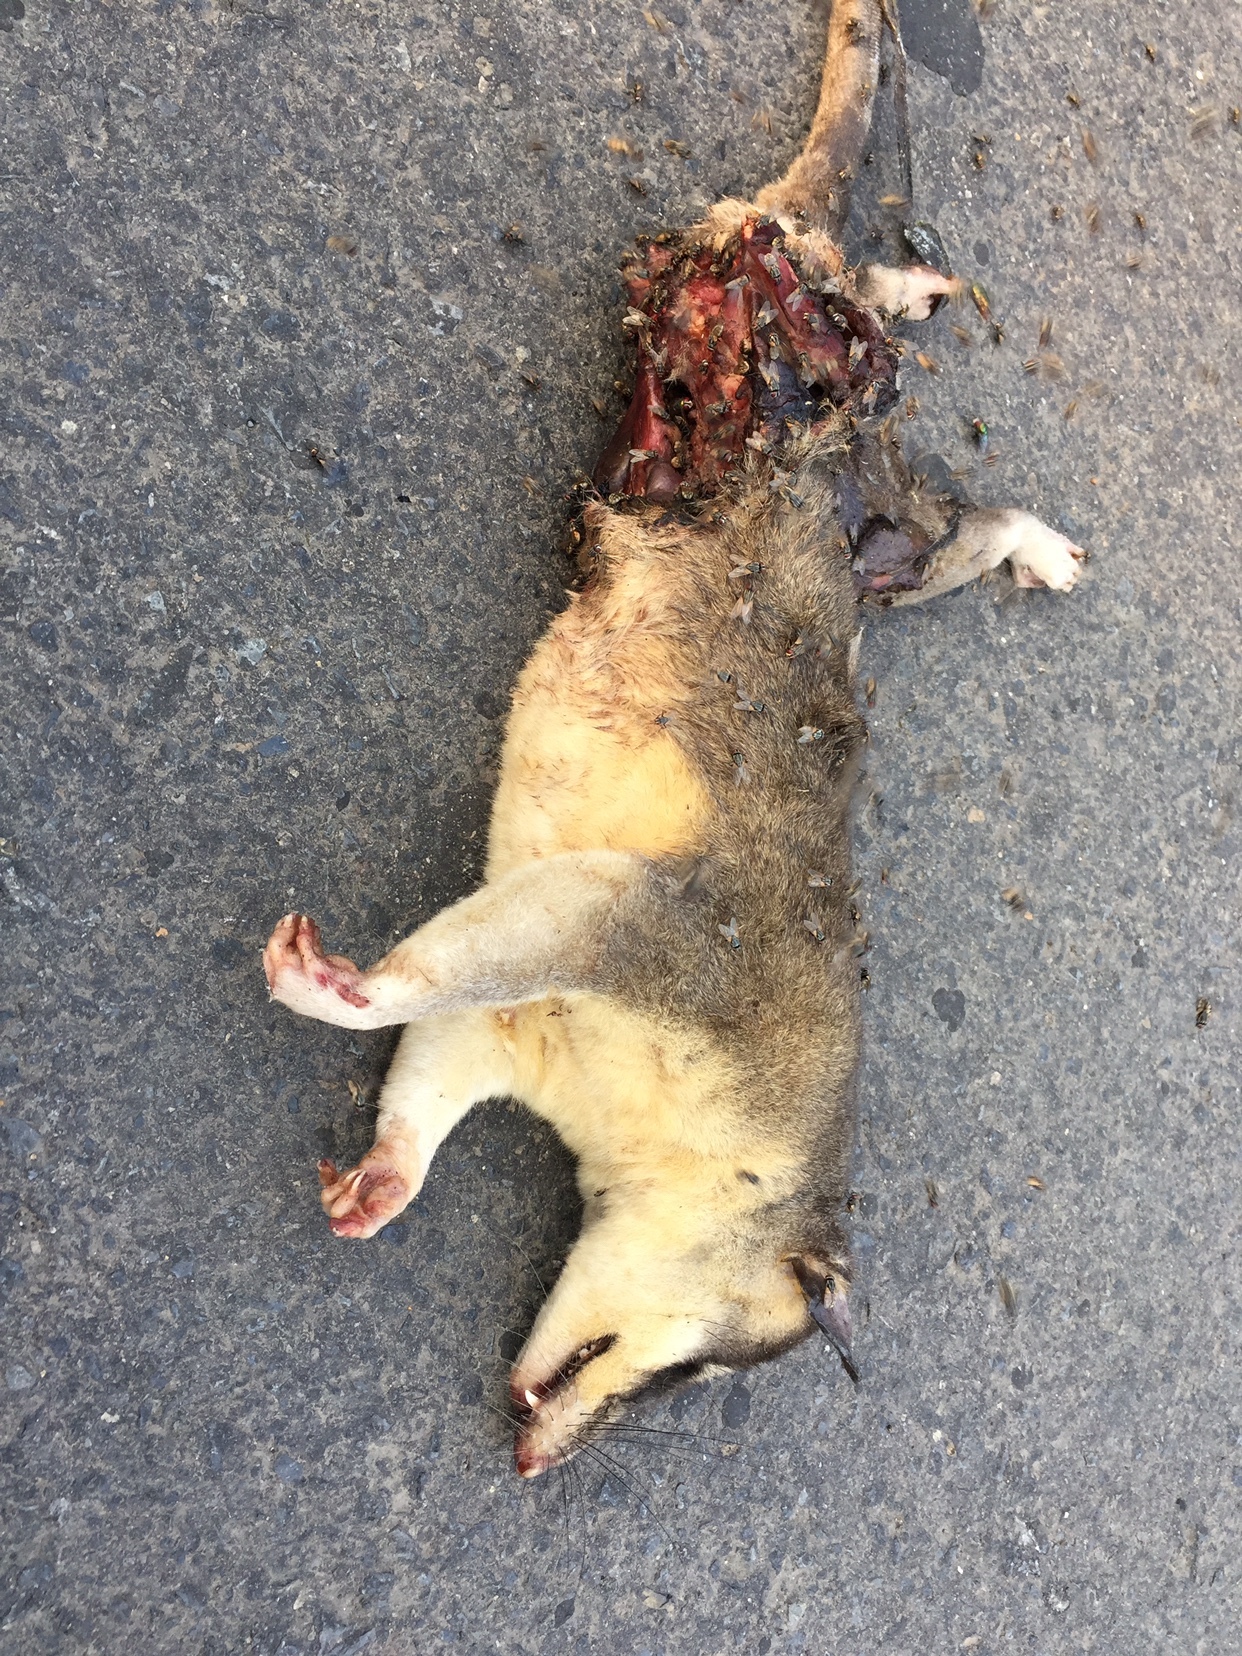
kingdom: Animalia
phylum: Chordata
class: Mammalia
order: Didelphimorphia
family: Didelphidae
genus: Philander
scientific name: Philander
